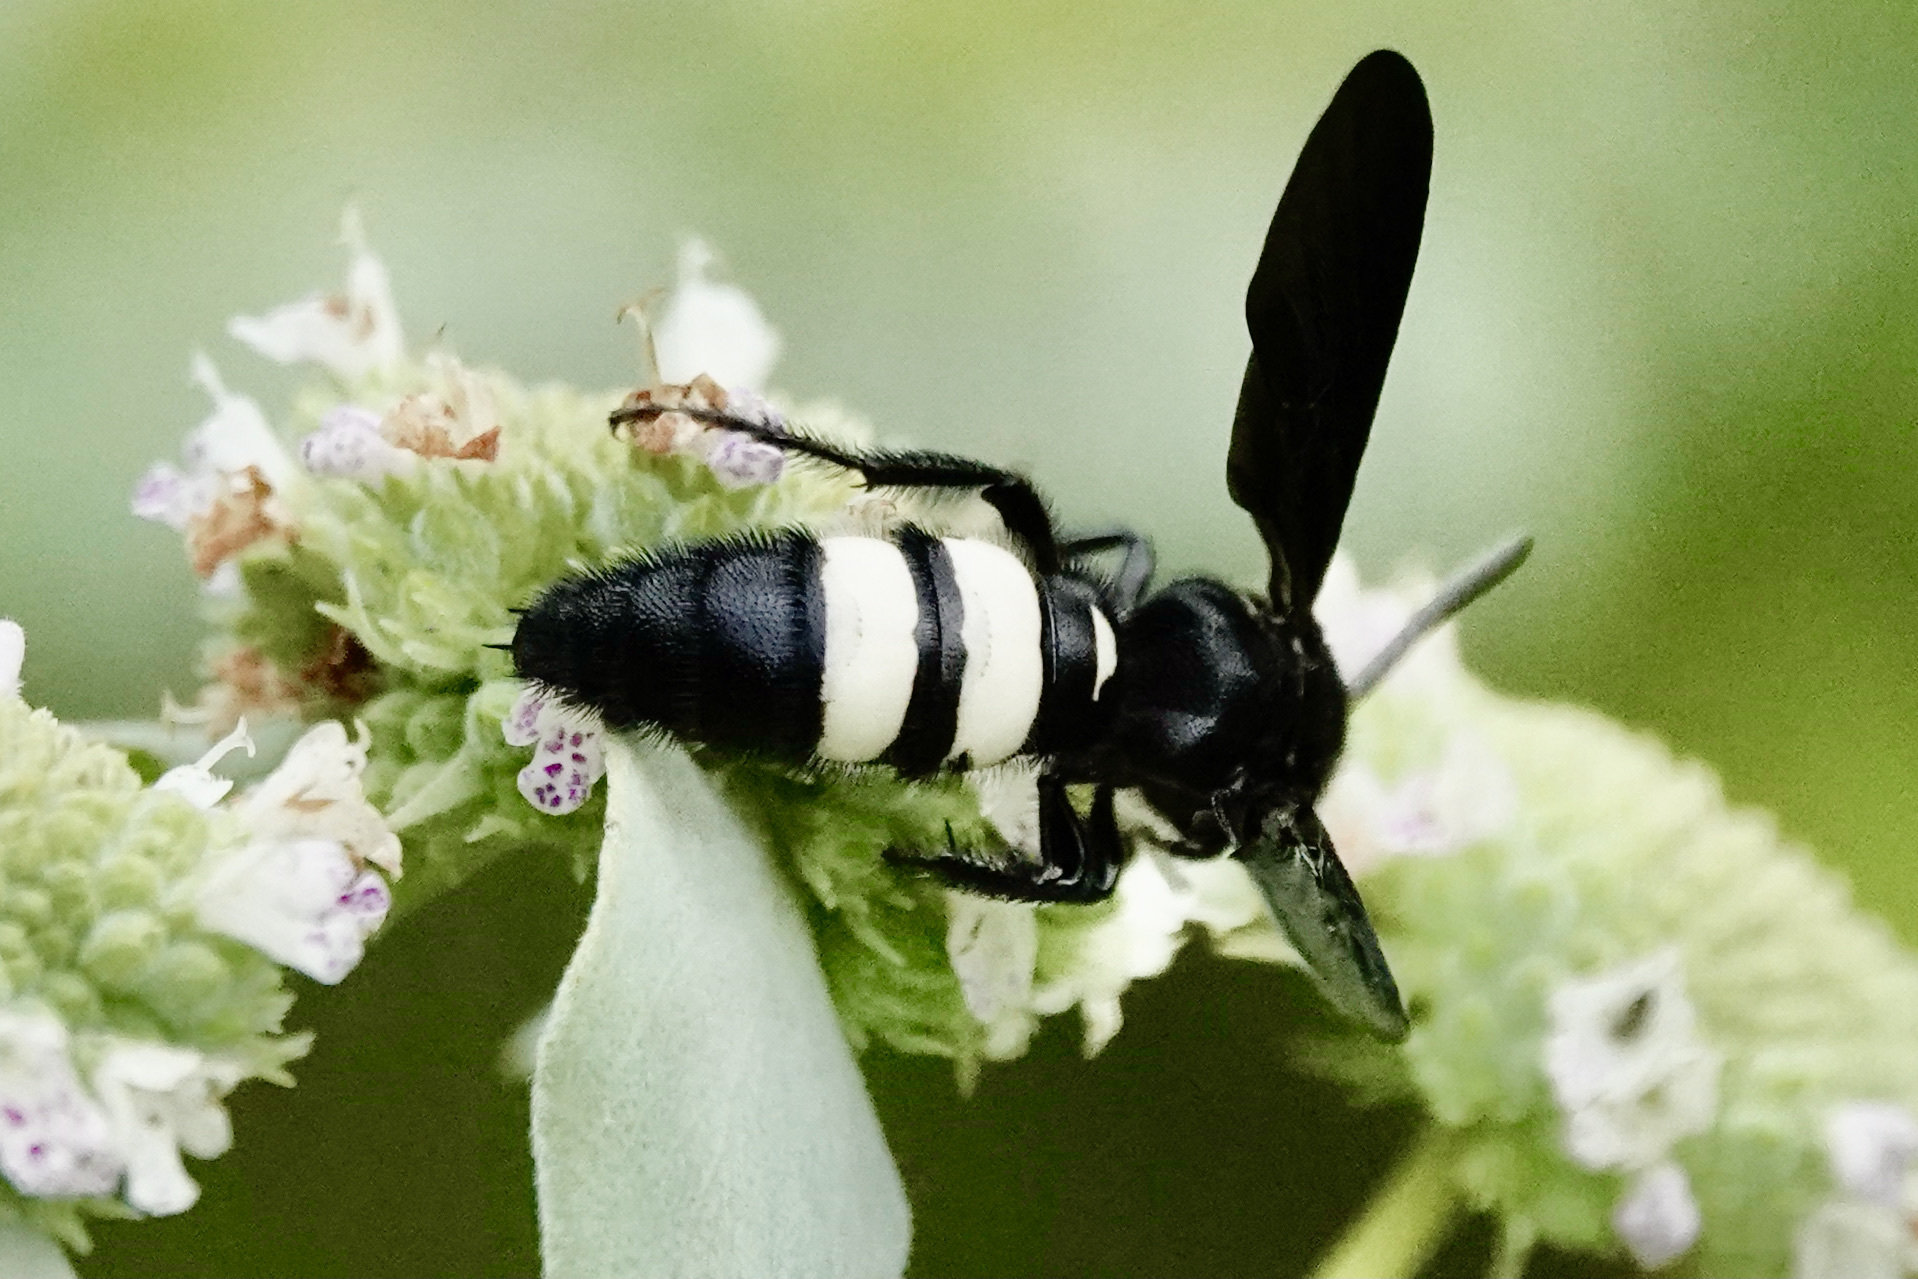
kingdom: Animalia
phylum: Arthropoda
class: Insecta
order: Hymenoptera
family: Scoliidae
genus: Scolia
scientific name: Scolia bicincta
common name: Double-banded scoliid wasp
